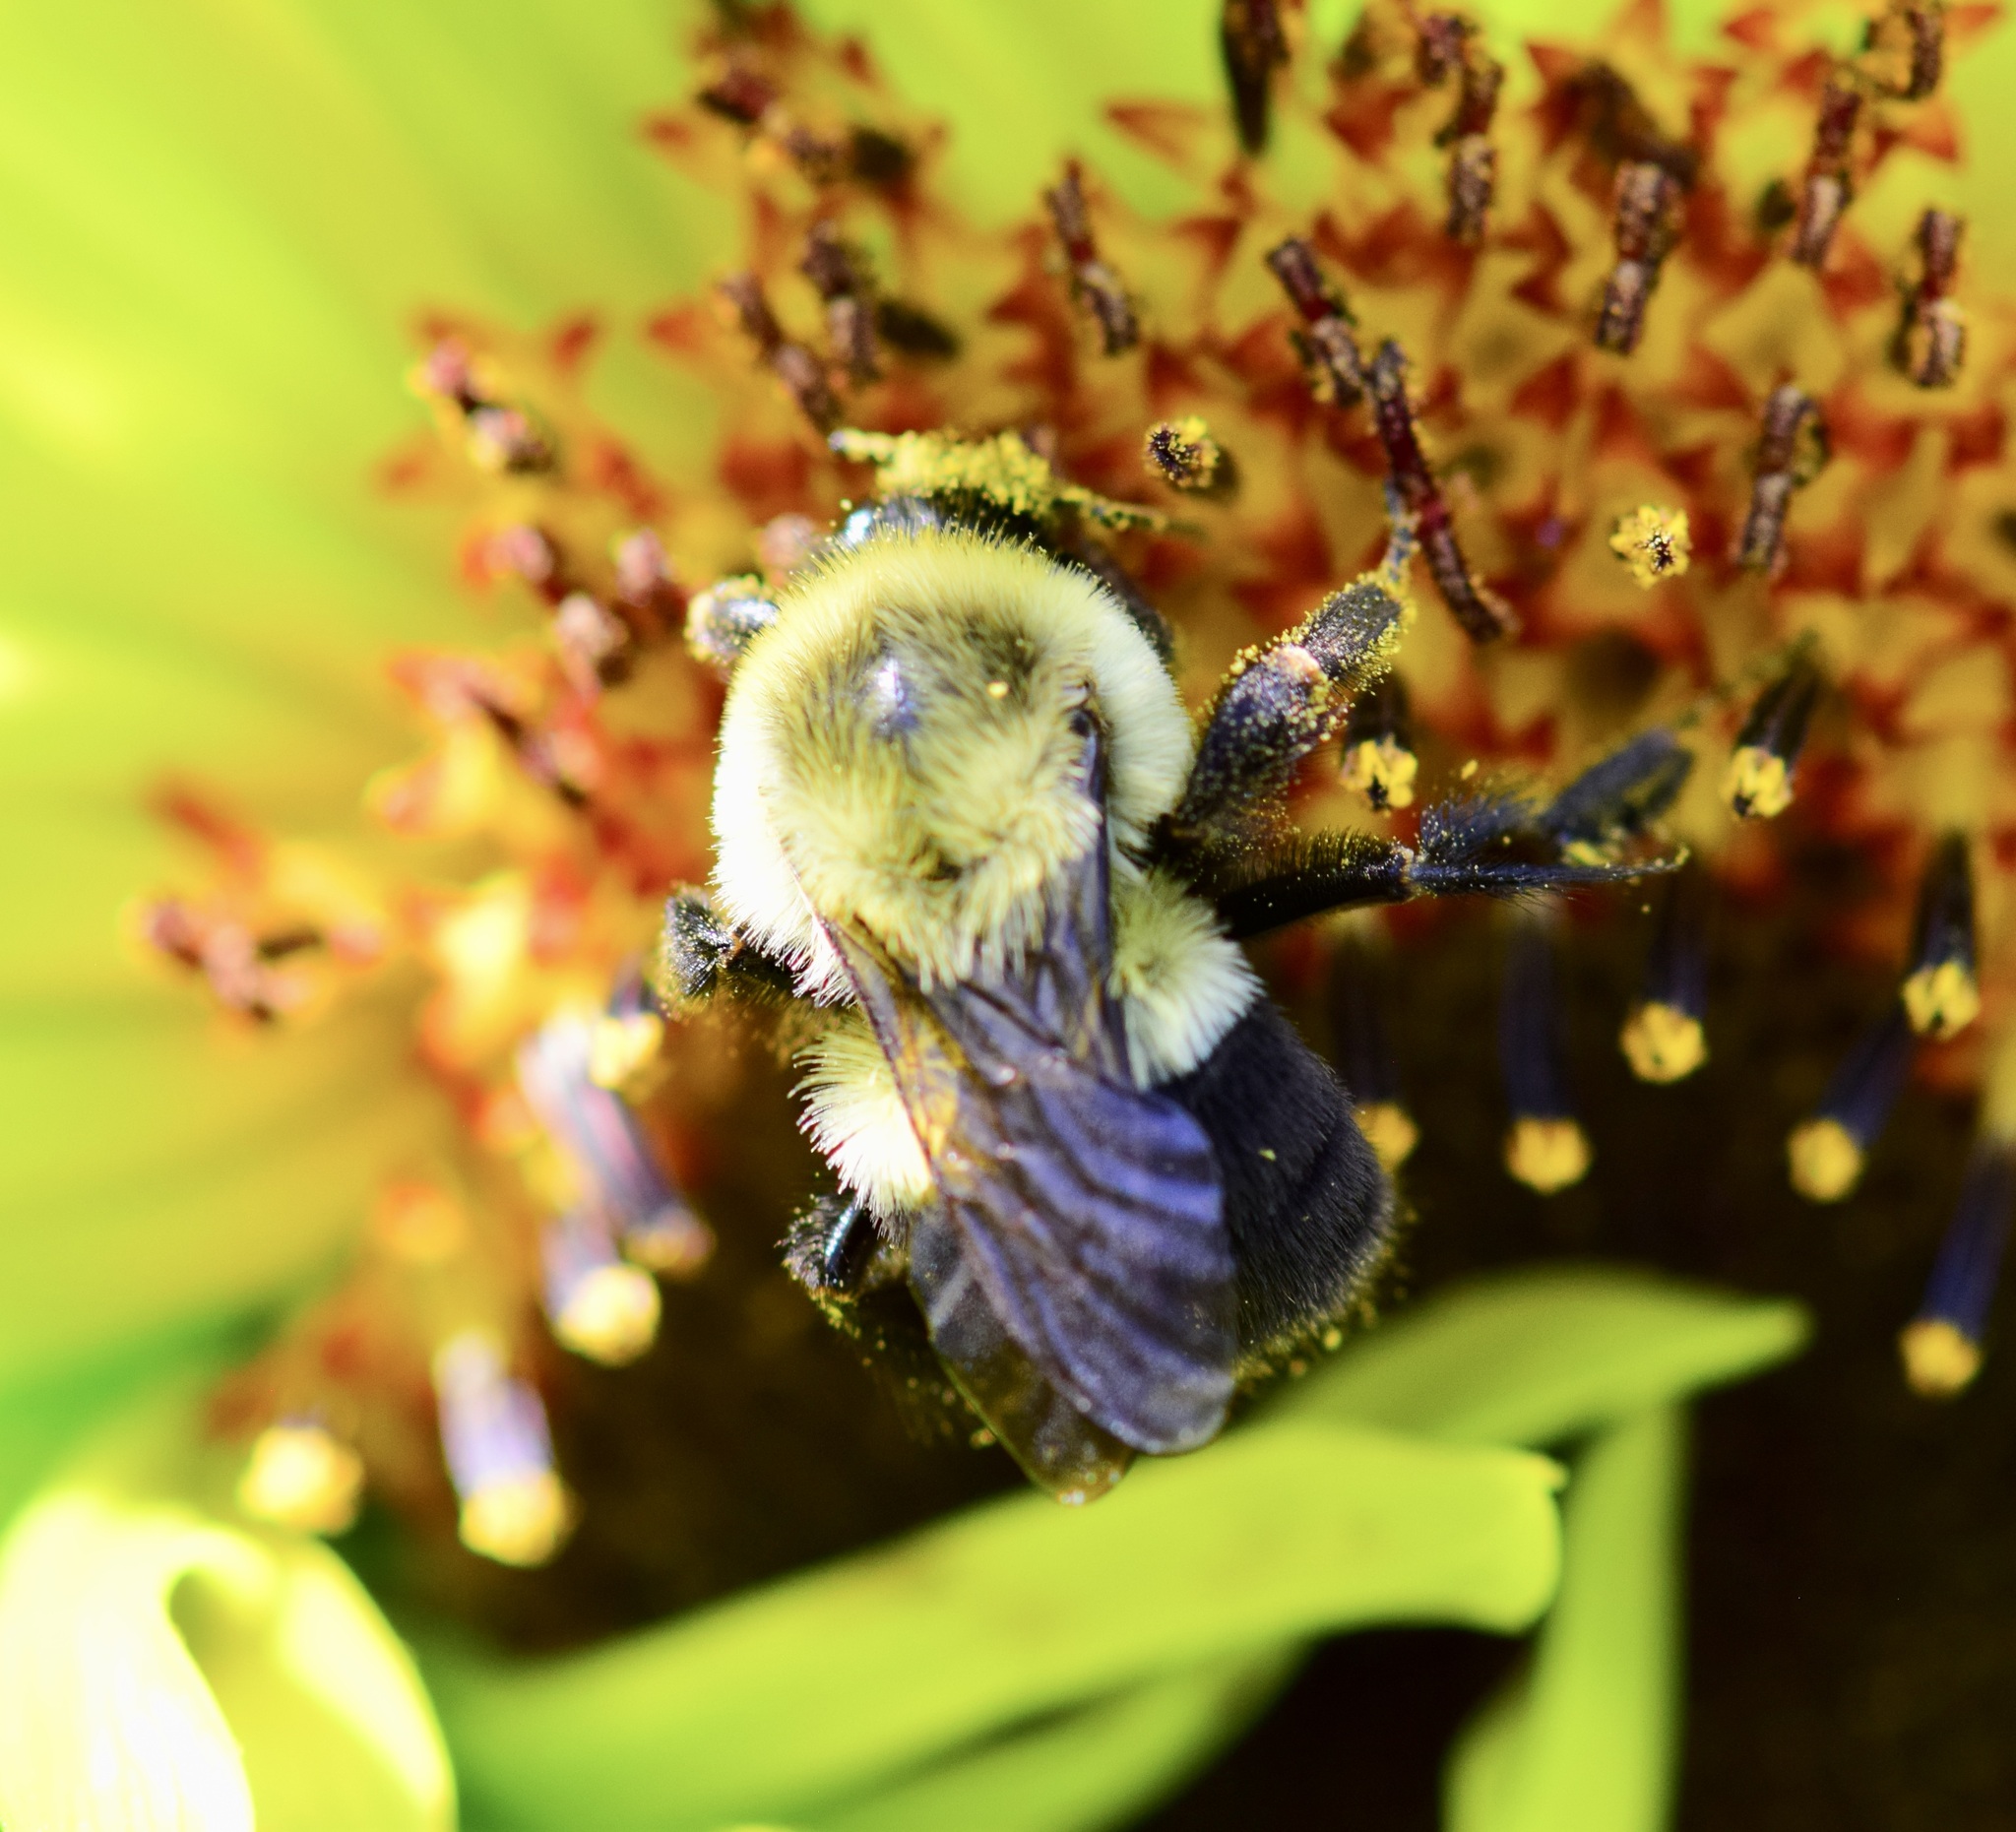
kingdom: Animalia
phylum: Arthropoda
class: Insecta
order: Hymenoptera
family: Apidae
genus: Bombus
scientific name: Bombus impatiens
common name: Common eastern bumble bee
